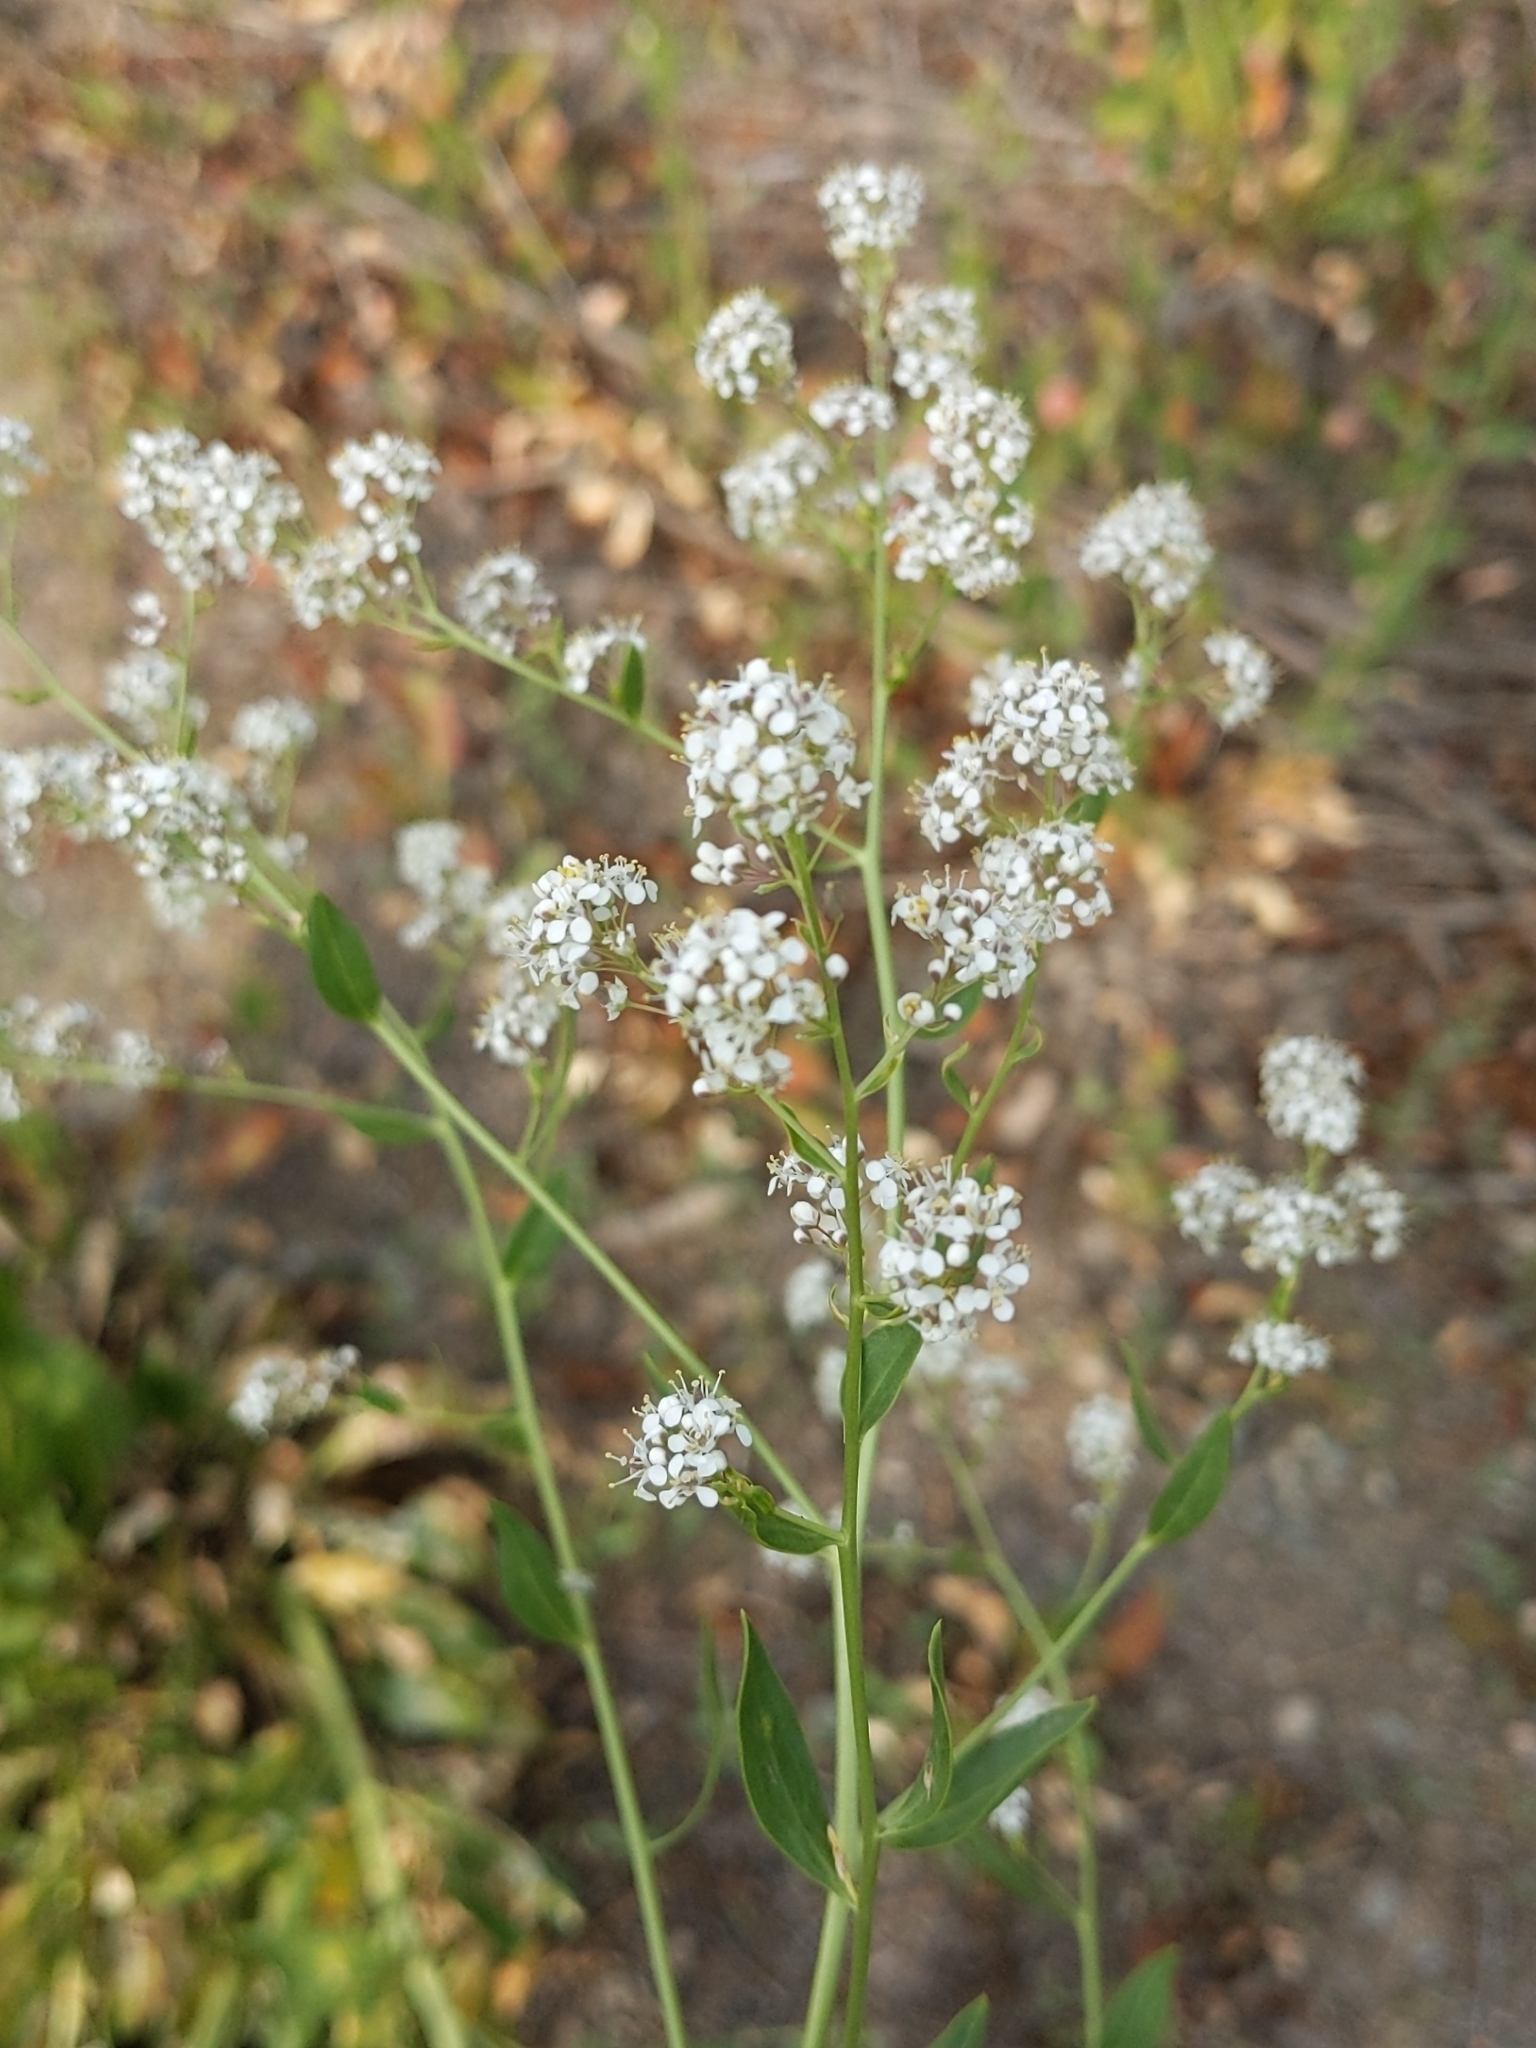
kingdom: Plantae
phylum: Tracheophyta
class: Magnoliopsida
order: Brassicales
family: Brassicaceae
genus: Lepidium
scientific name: Lepidium latifolium
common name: Dittander
